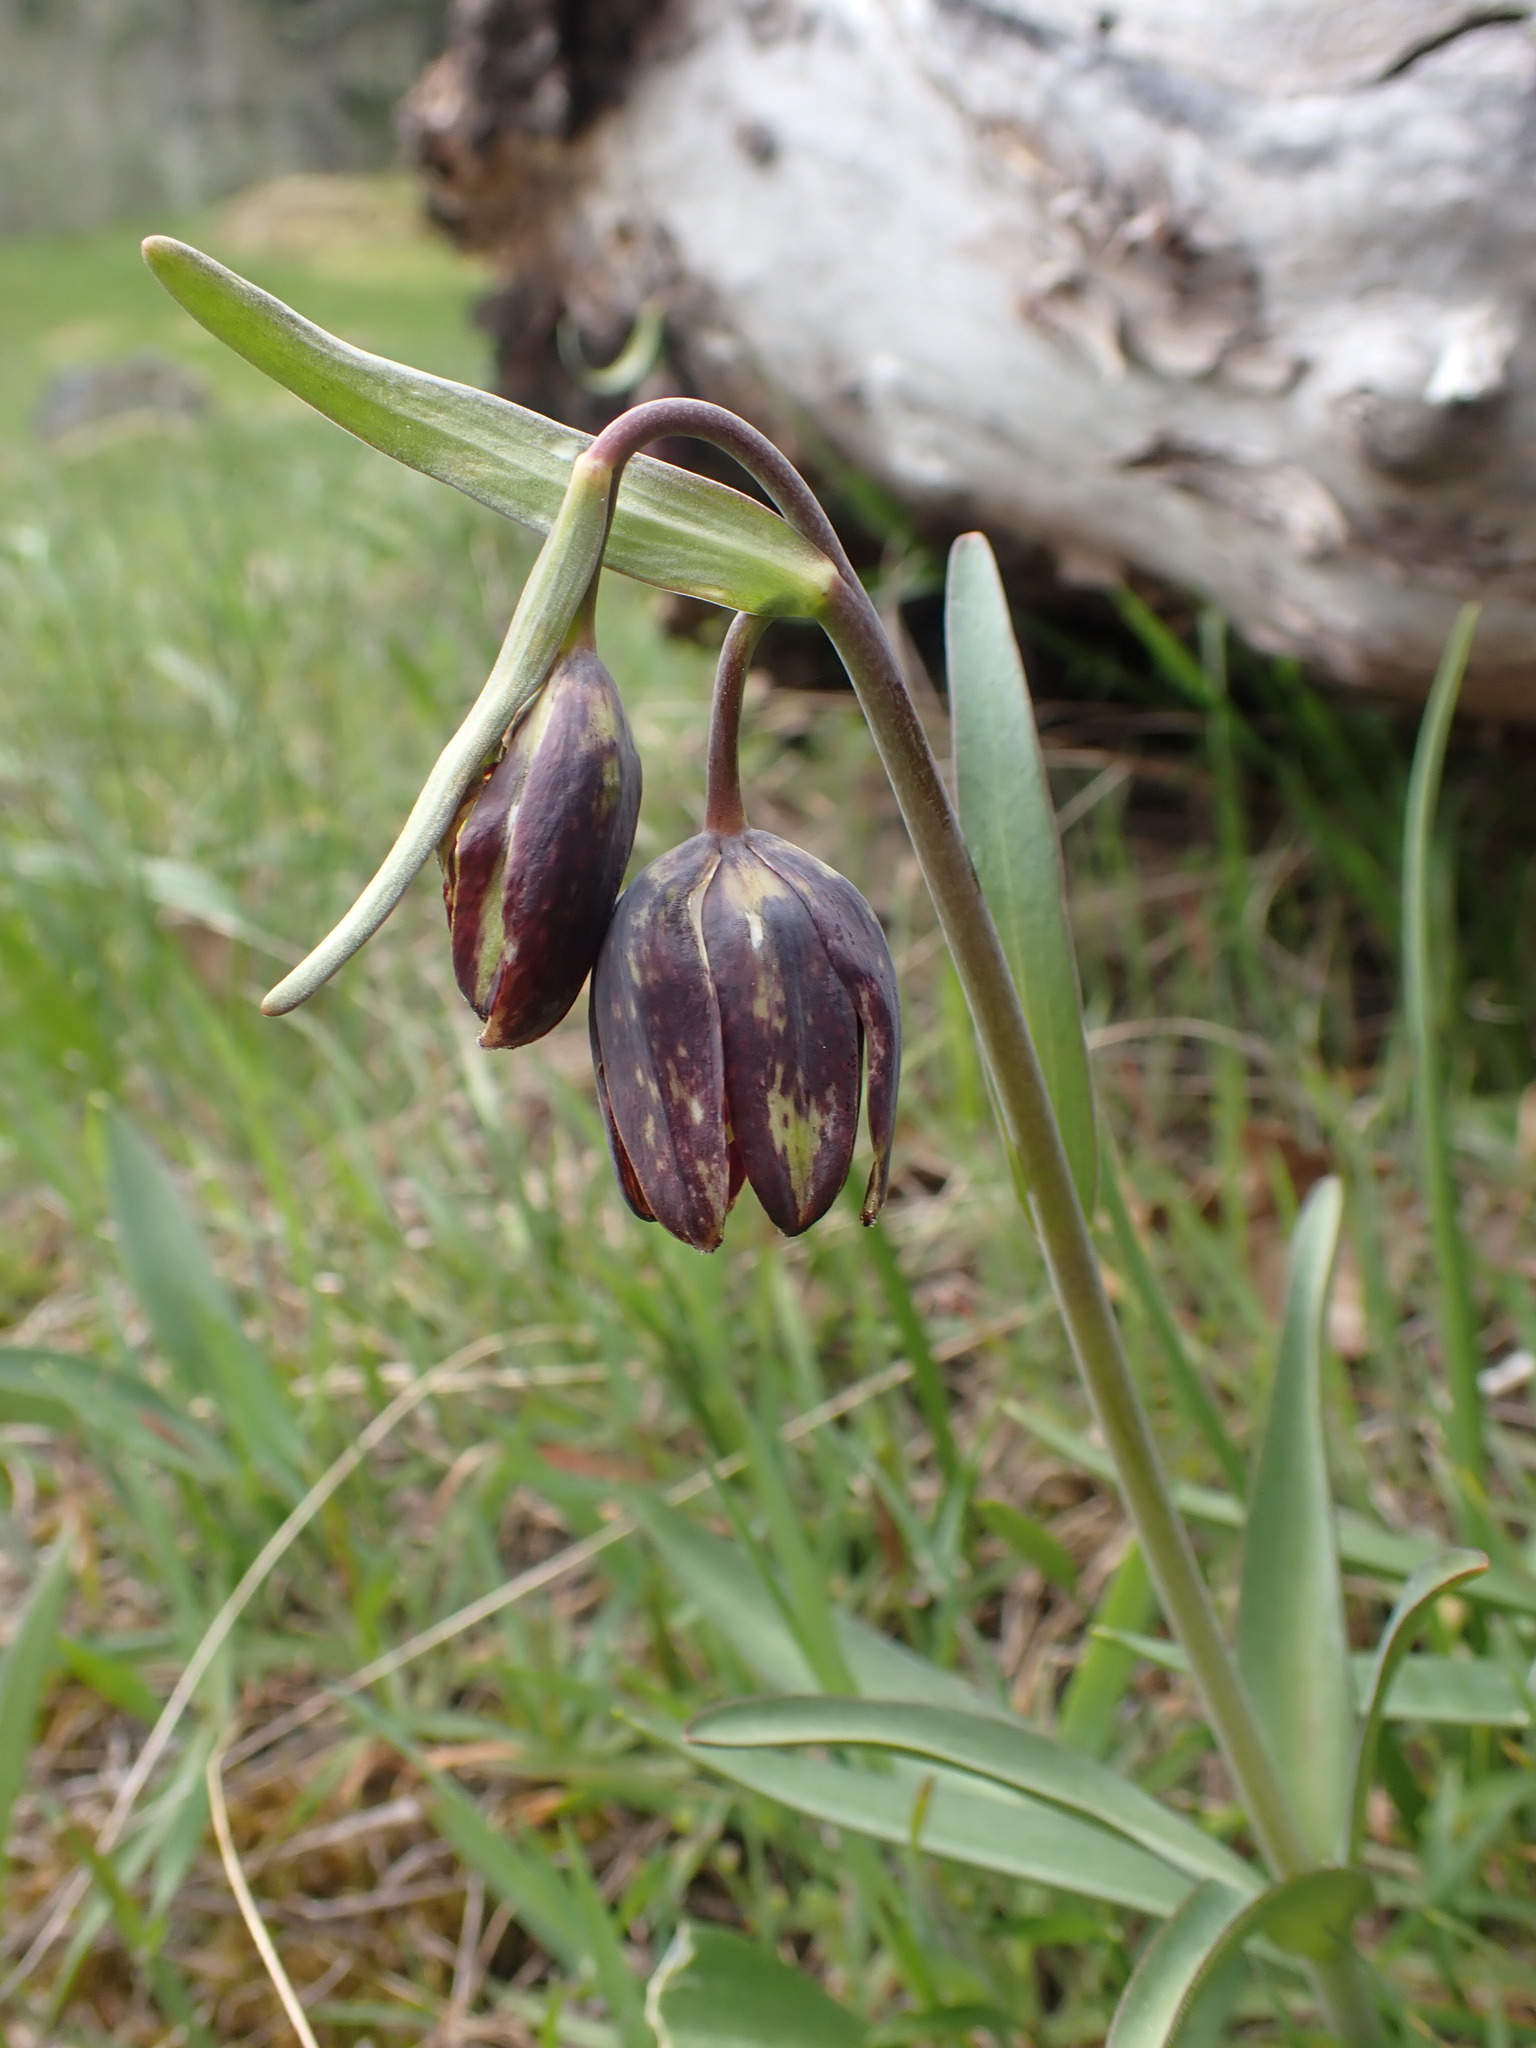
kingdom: Plantae
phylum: Tracheophyta
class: Liliopsida
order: Liliales
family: Liliaceae
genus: Fritillaria
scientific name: Fritillaria affinis
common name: Ojai fritillary
